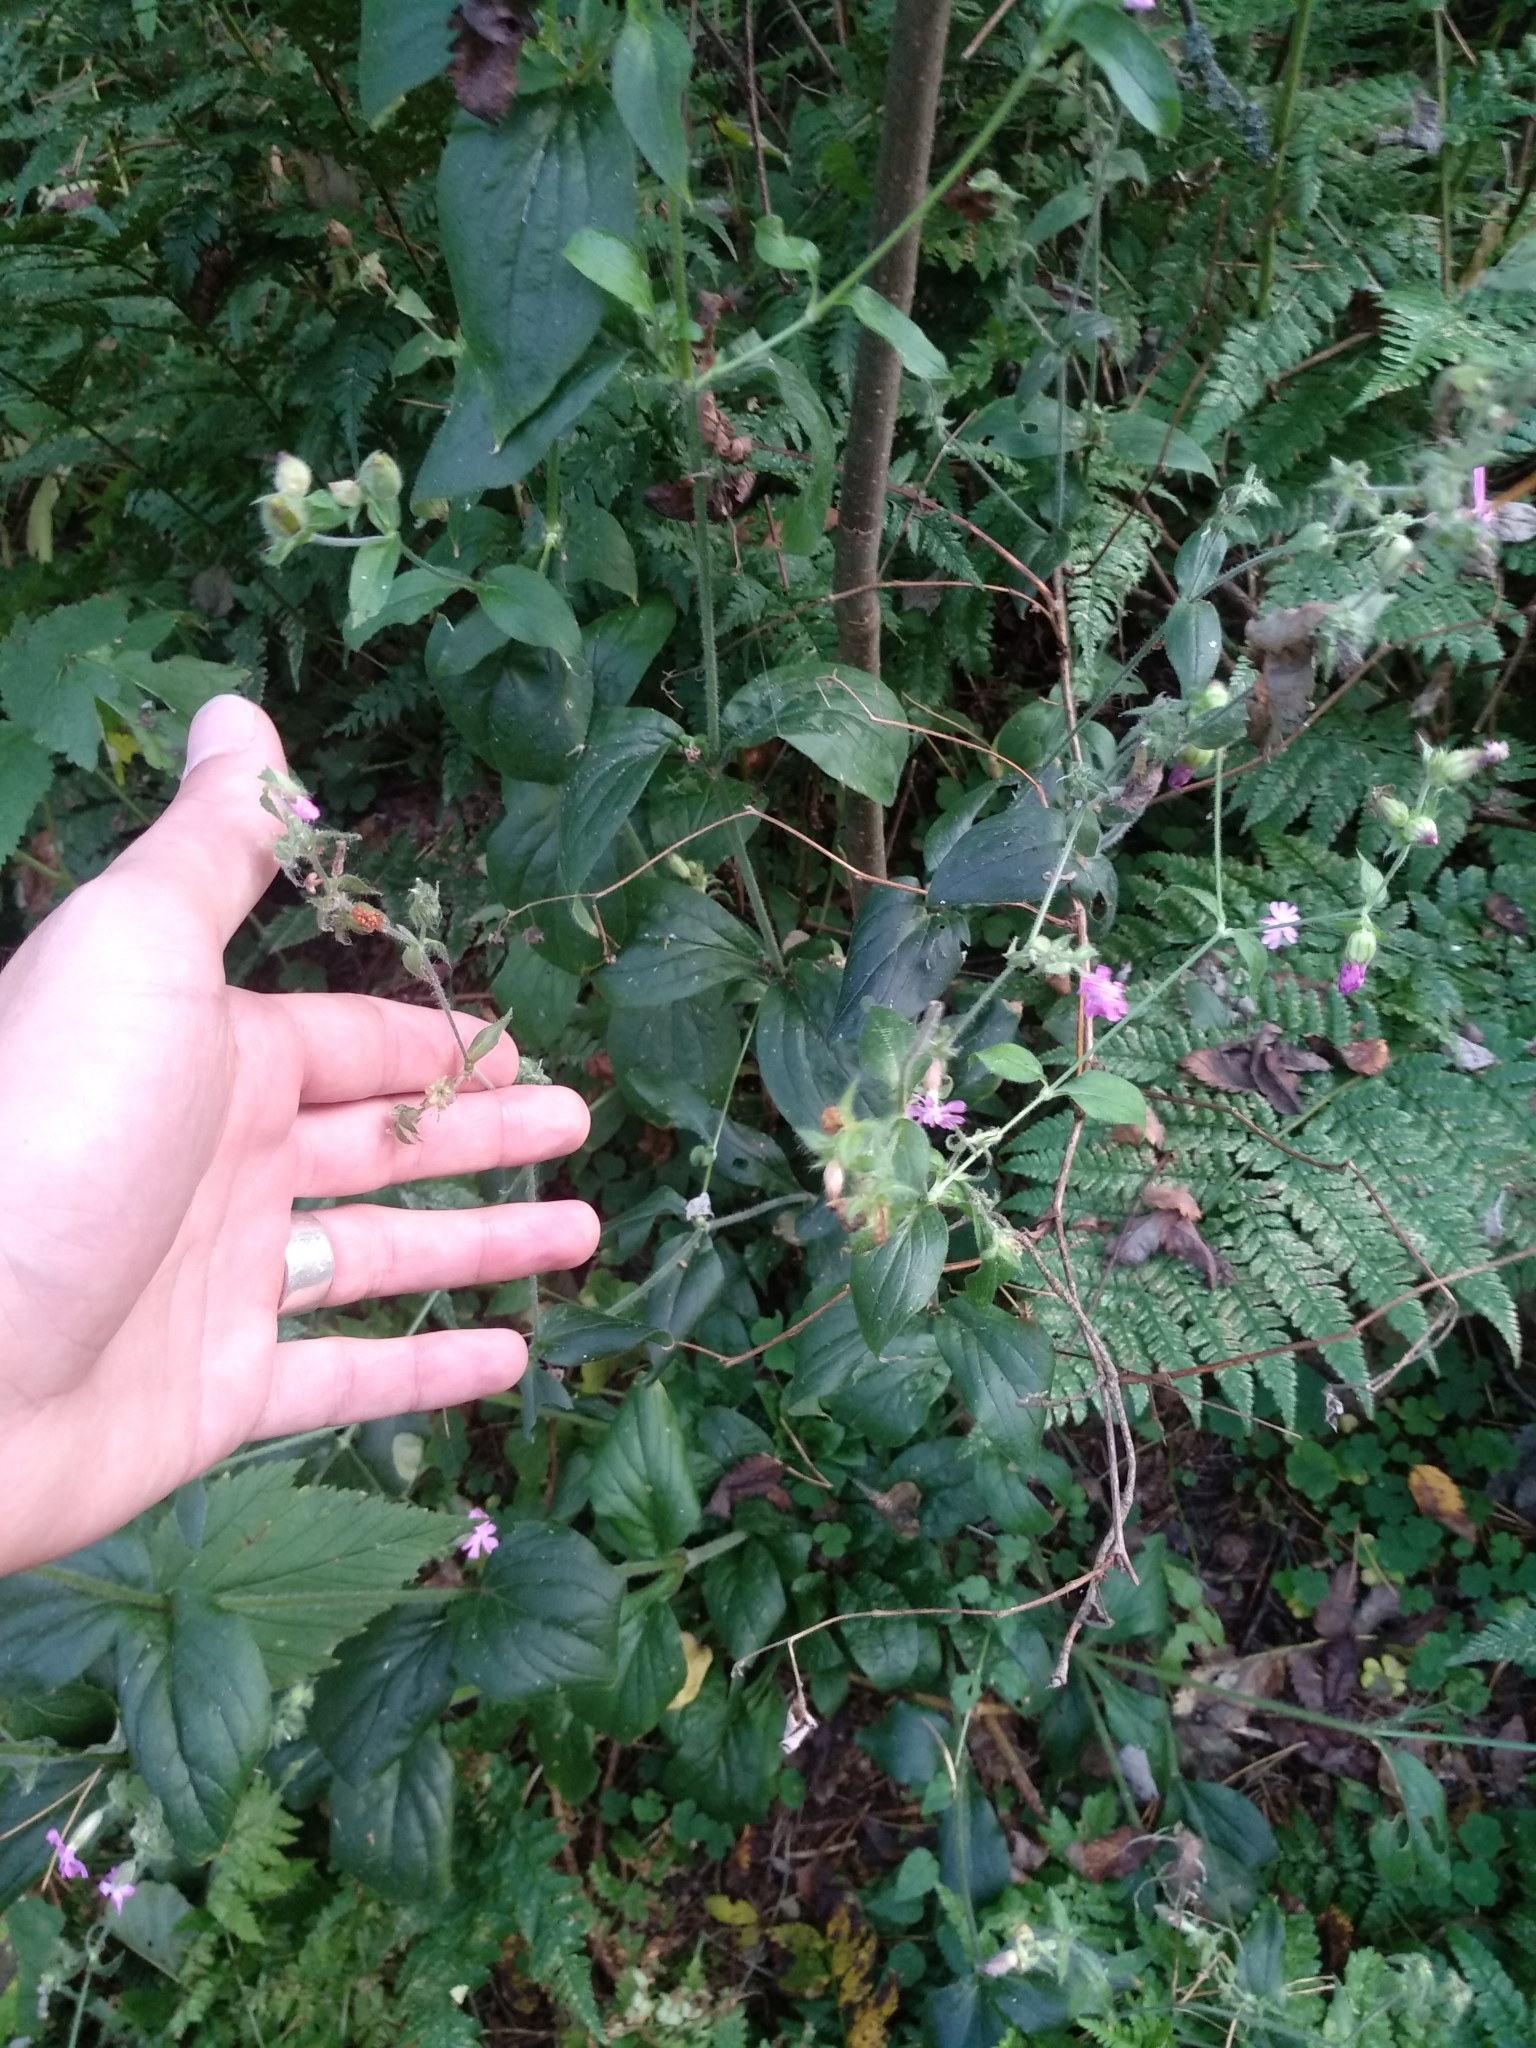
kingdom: Plantae
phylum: Tracheophyta
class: Magnoliopsida
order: Caryophyllales
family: Caryophyllaceae
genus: Silene
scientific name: Silene dioica
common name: Red campion
